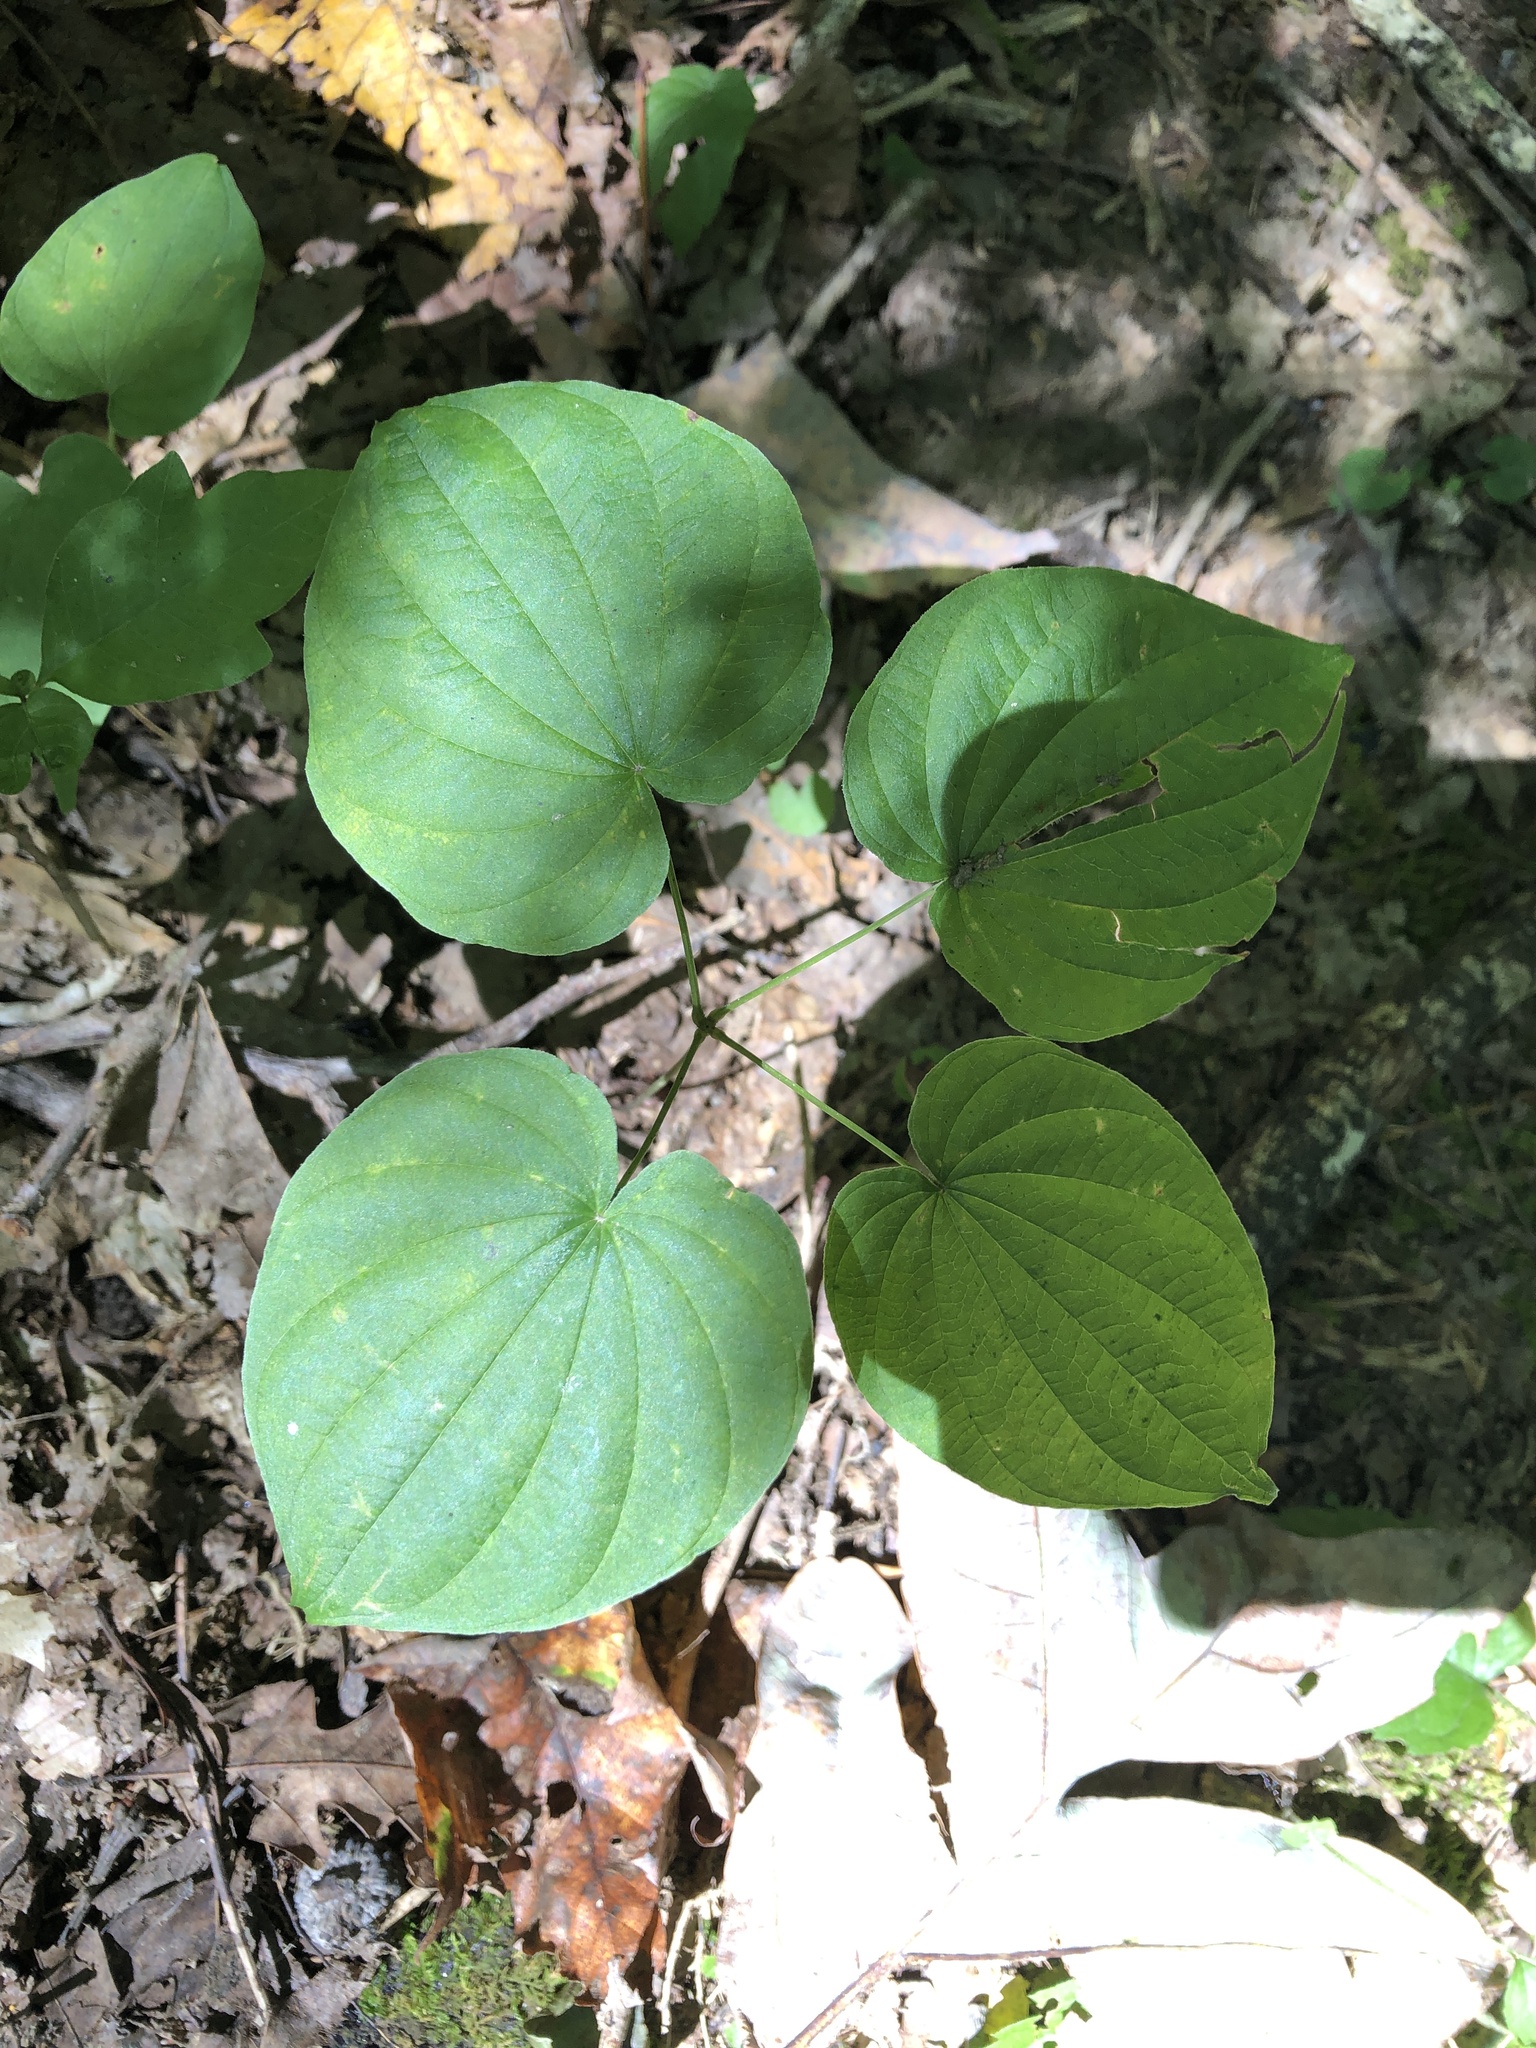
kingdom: Plantae
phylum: Tracheophyta
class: Liliopsida
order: Dioscoreales
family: Dioscoreaceae
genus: Dioscorea
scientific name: Dioscorea villosa
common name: Wild yam
